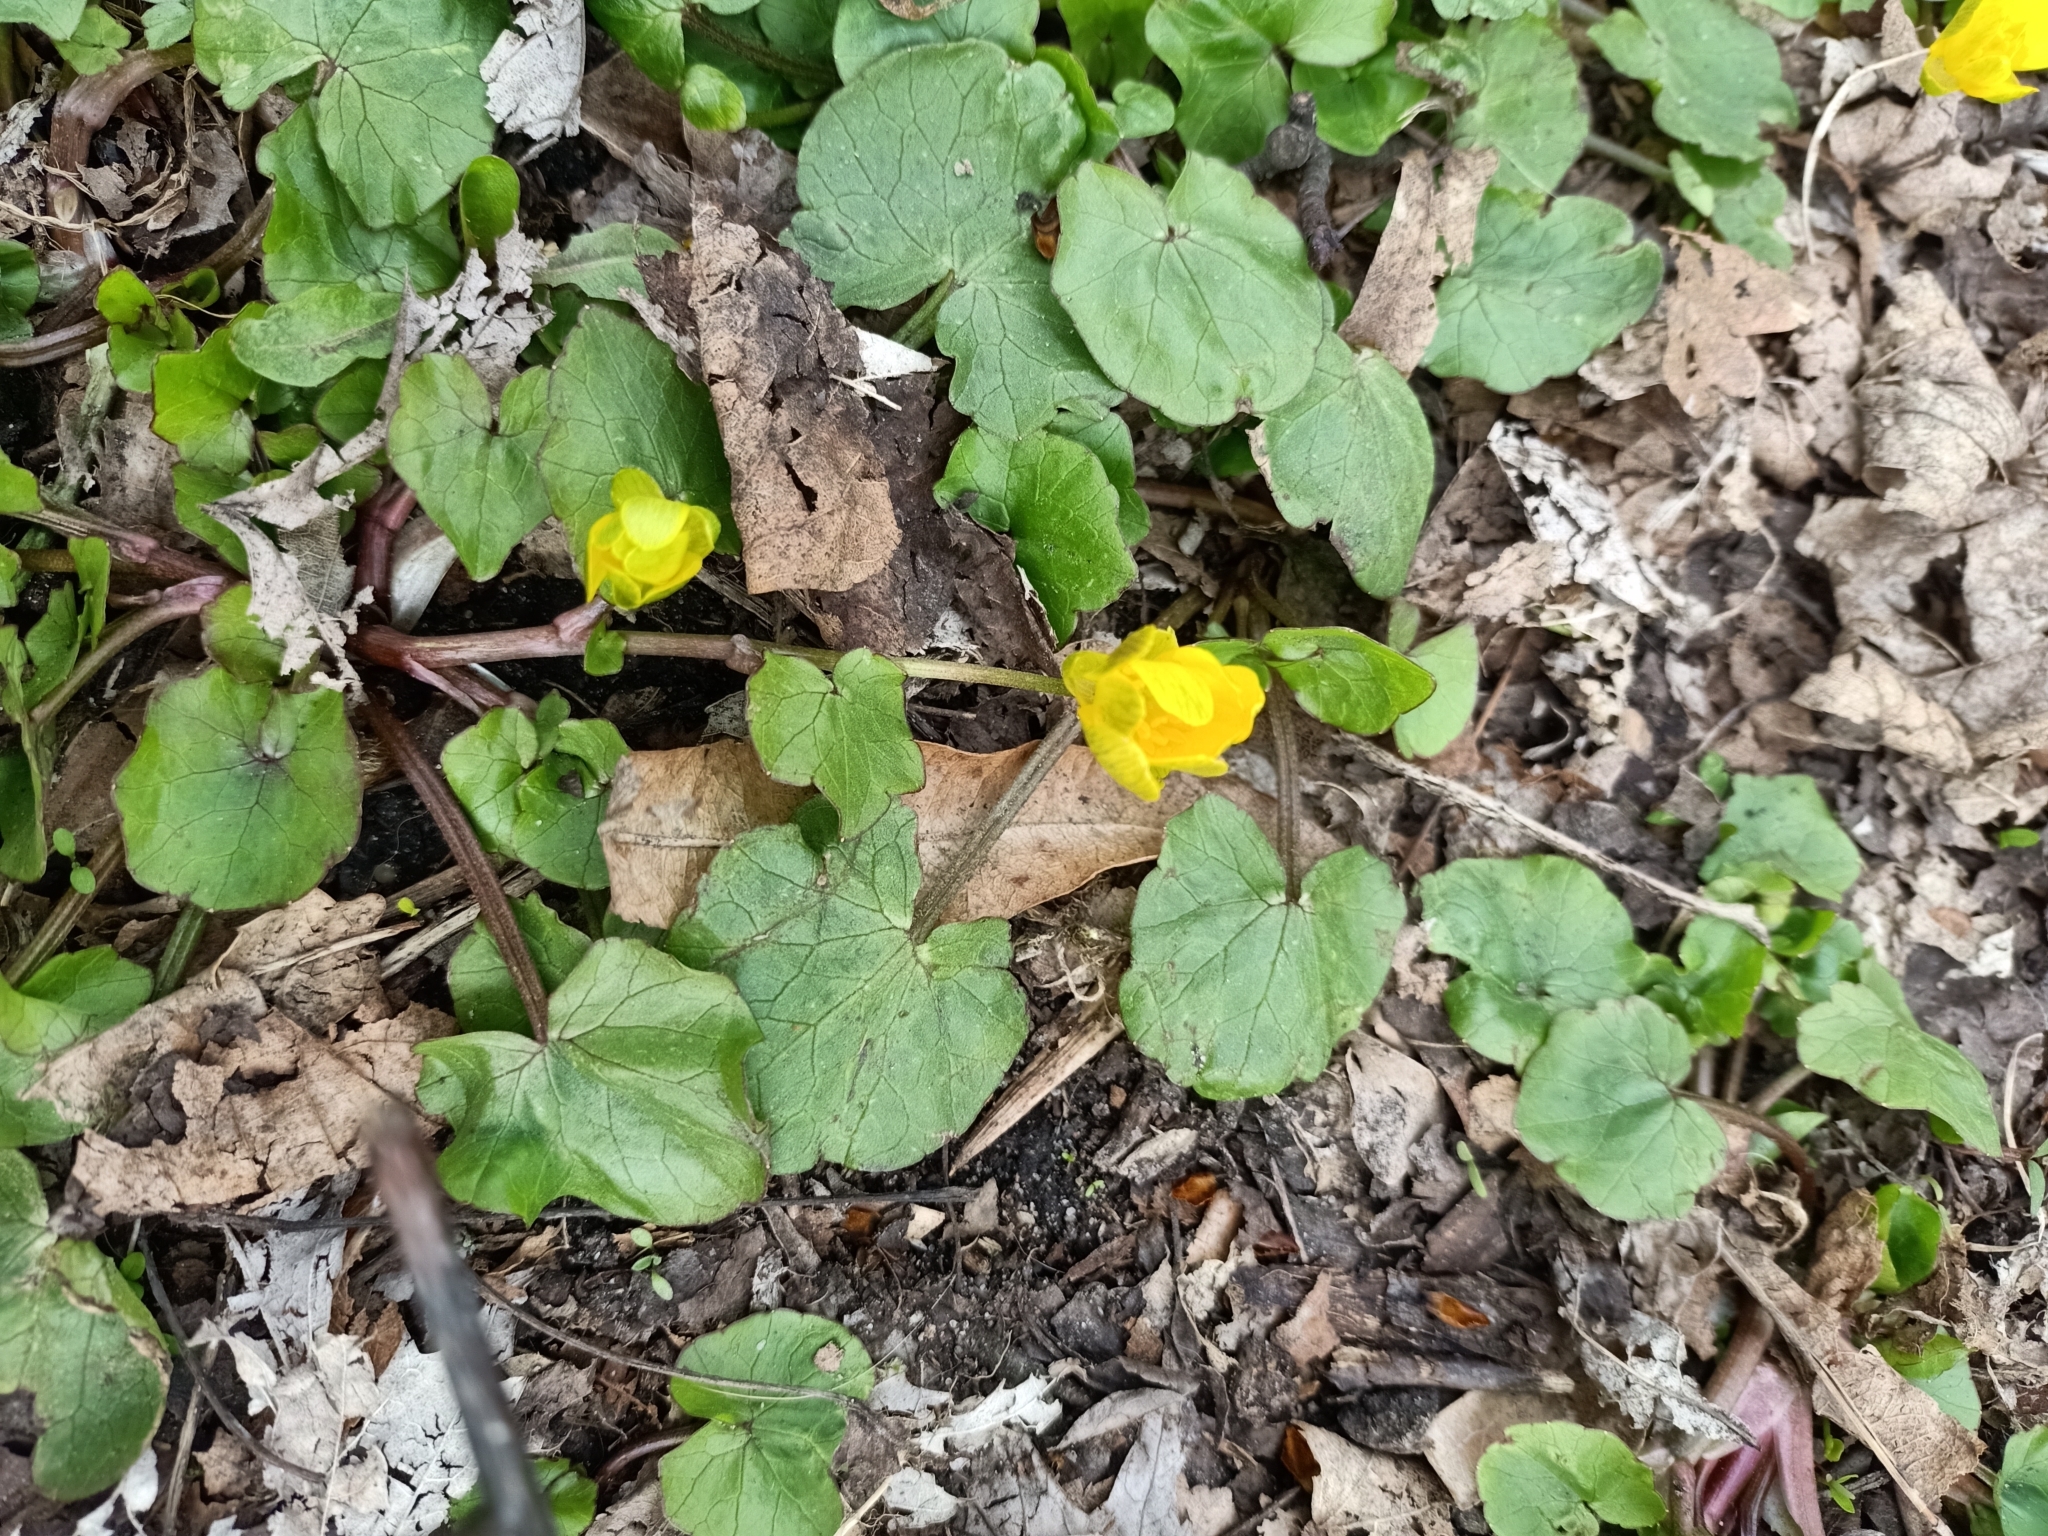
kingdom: Plantae
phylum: Tracheophyta
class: Magnoliopsida
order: Ranunculales
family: Ranunculaceae
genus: Ficaria
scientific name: Ficaria verna
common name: Lesser celandine
